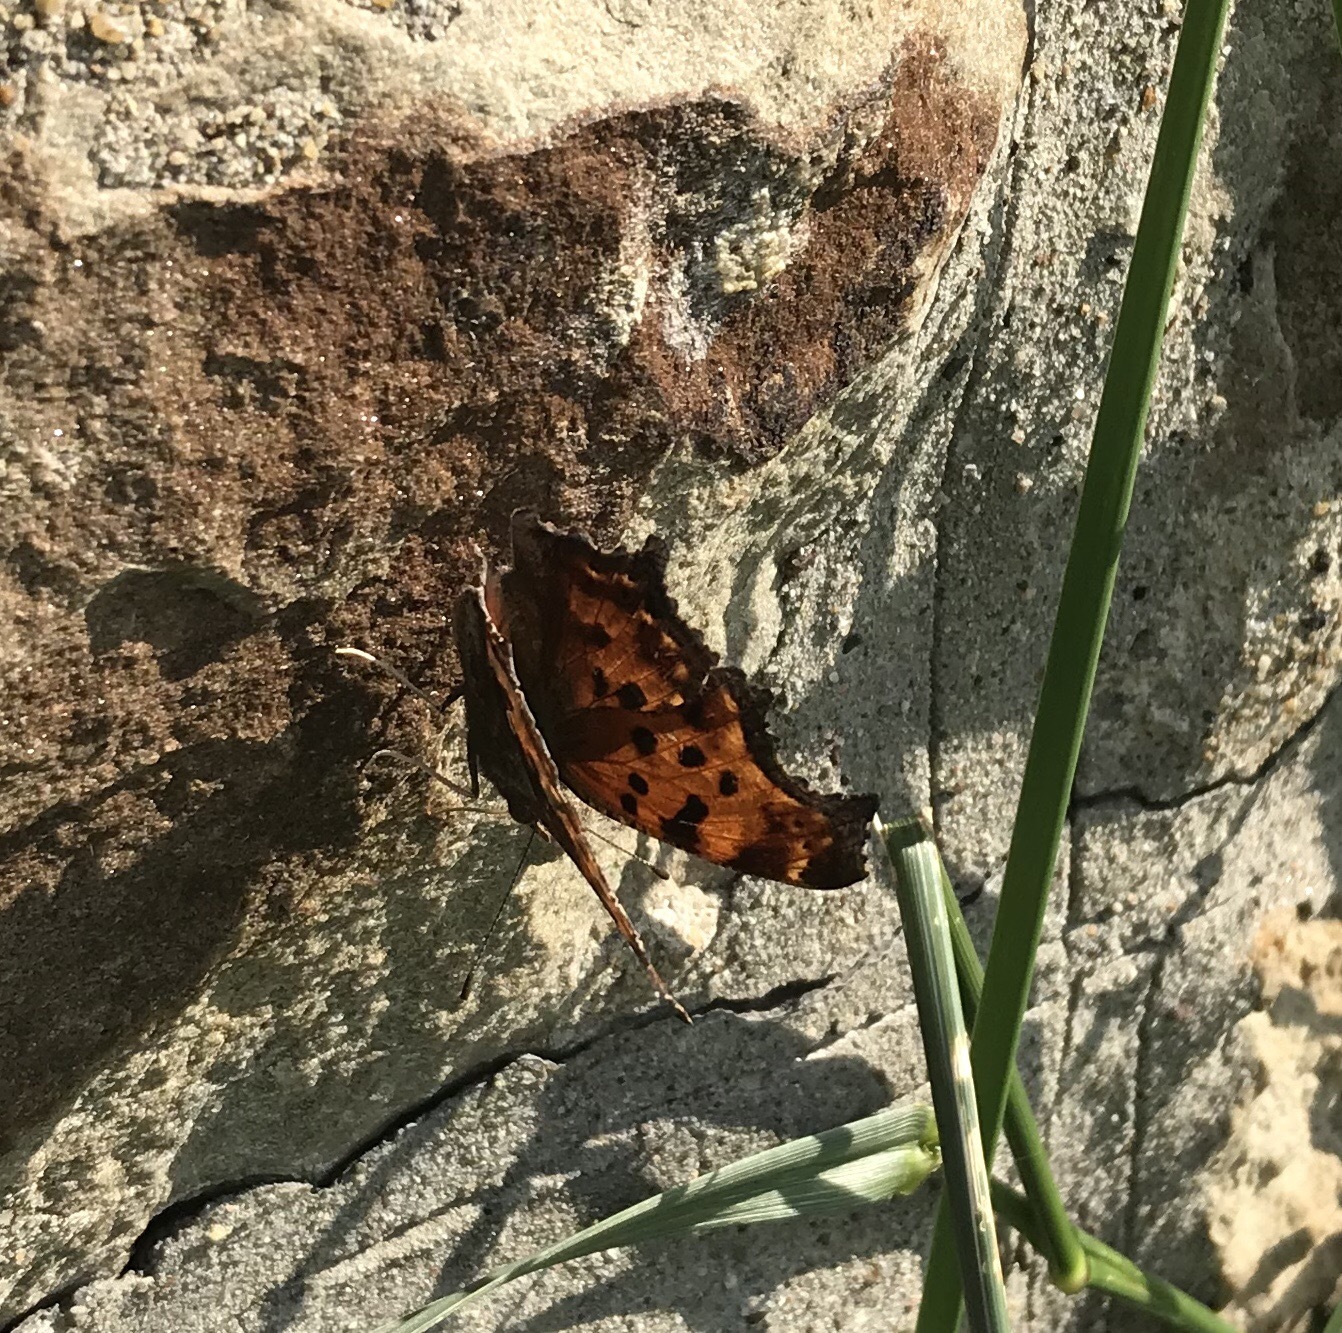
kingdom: Animalia
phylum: Arthropoda
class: Insecta
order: Lepidoptera
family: Nymphalidae
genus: Polygonia
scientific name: Polygonia comma
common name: Eastern comma
